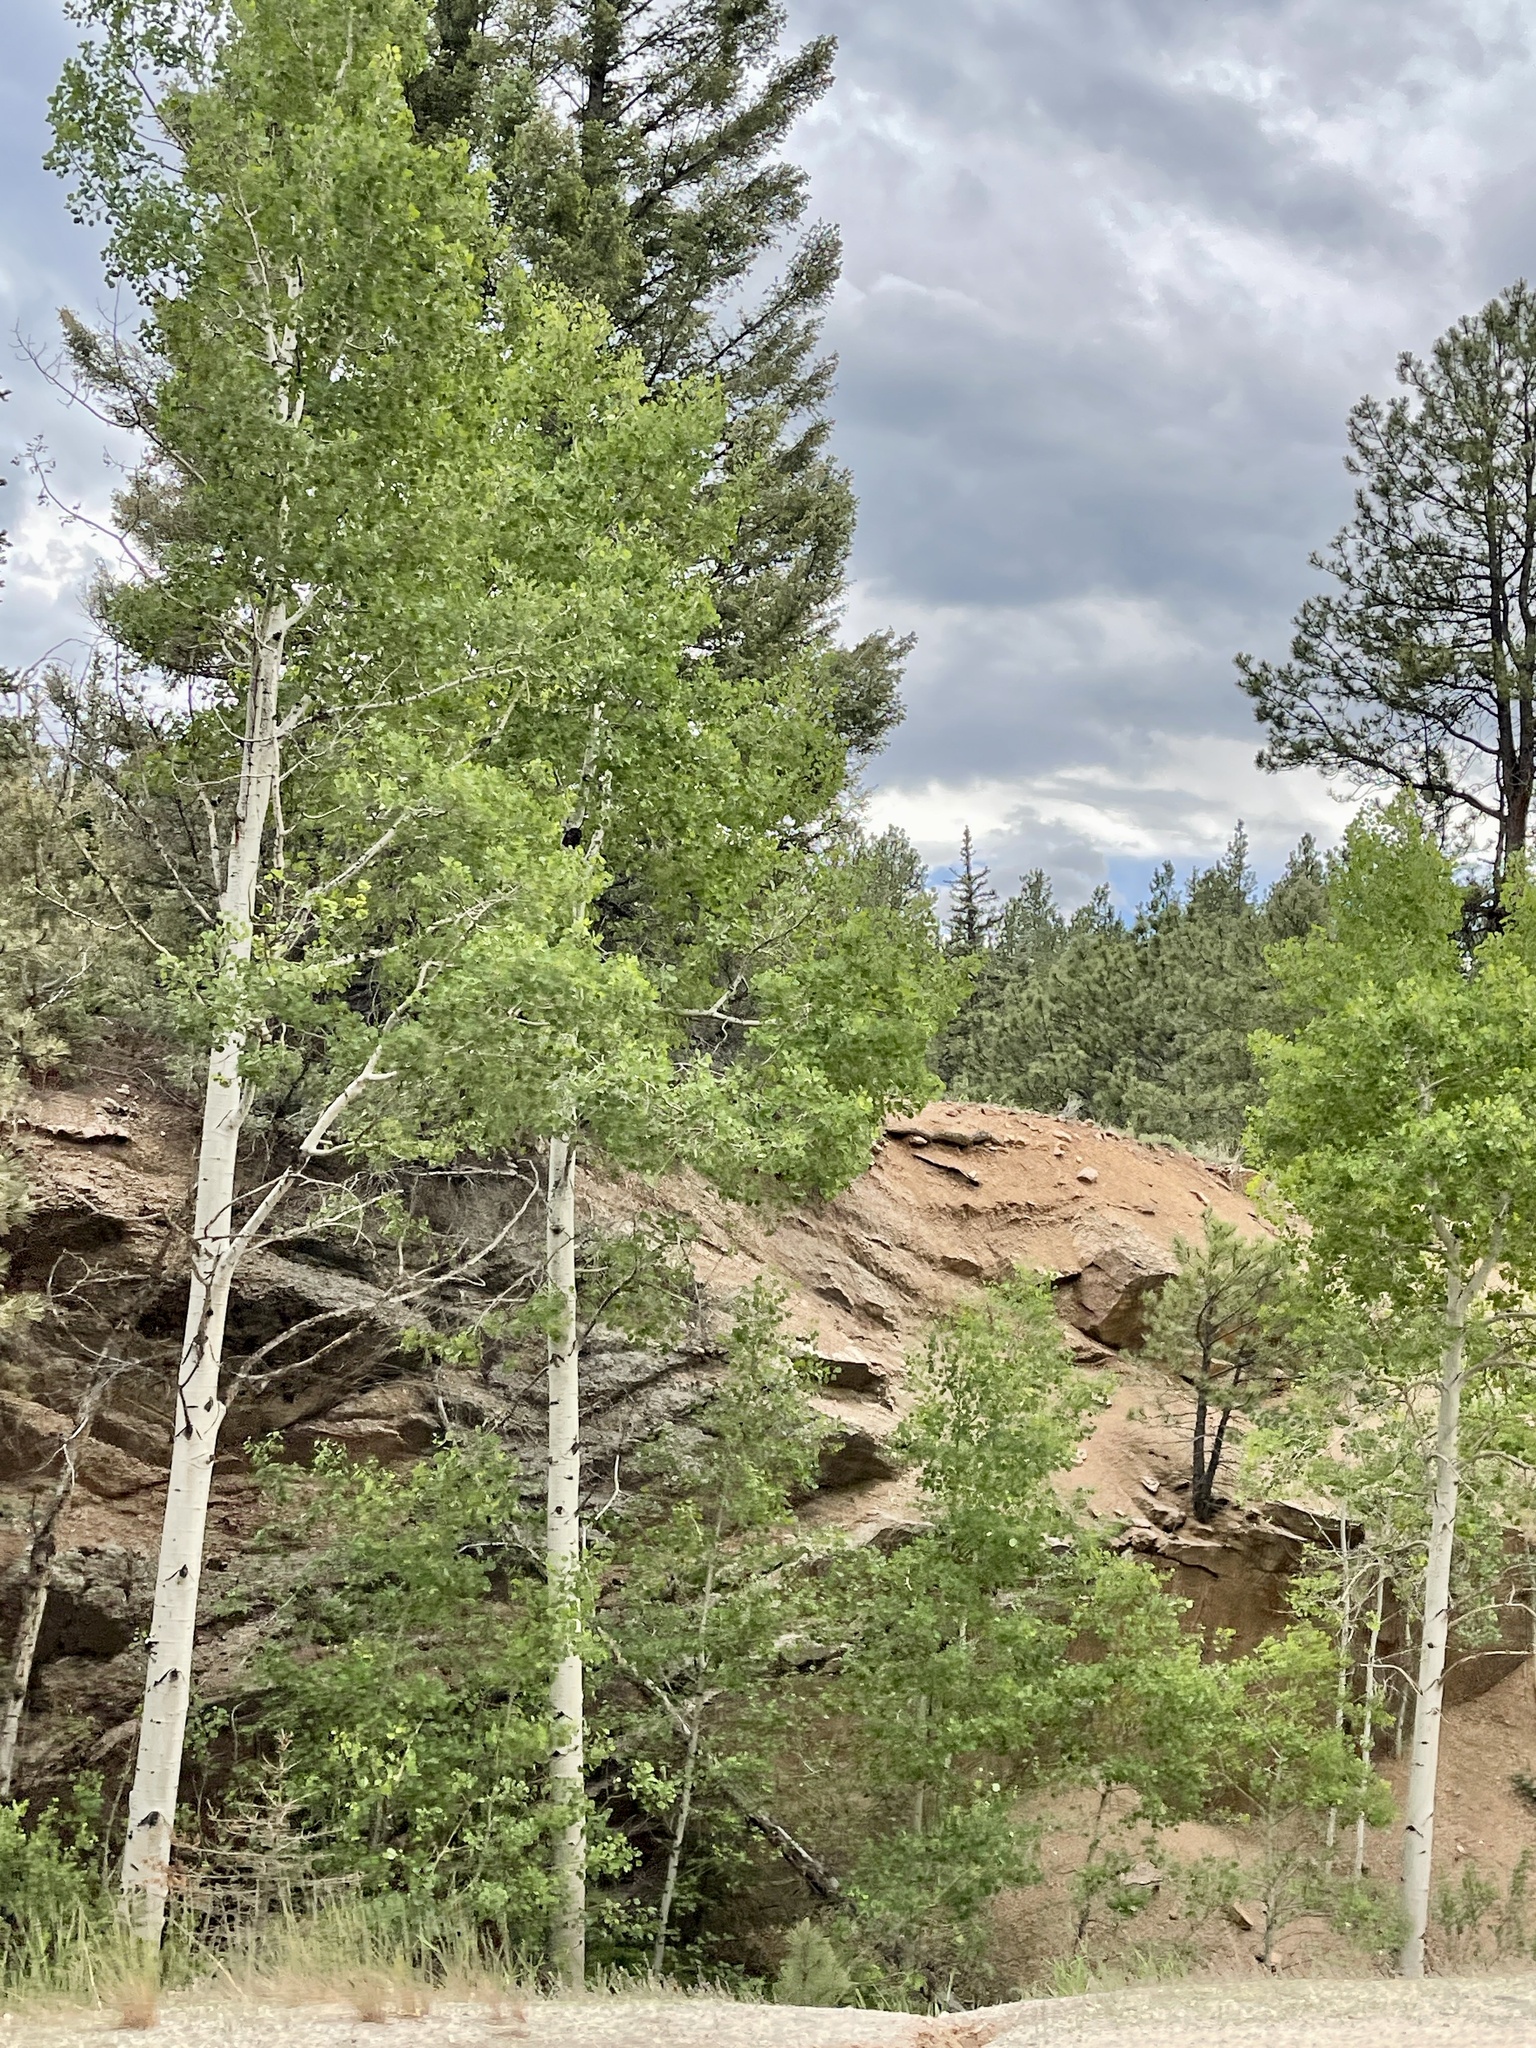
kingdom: Plantae
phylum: Tracheophyta
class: Magnoliopsida
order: Malpighiales
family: Salicaceae
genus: Populus
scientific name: Populus tremuloides
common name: Quaking aspen
